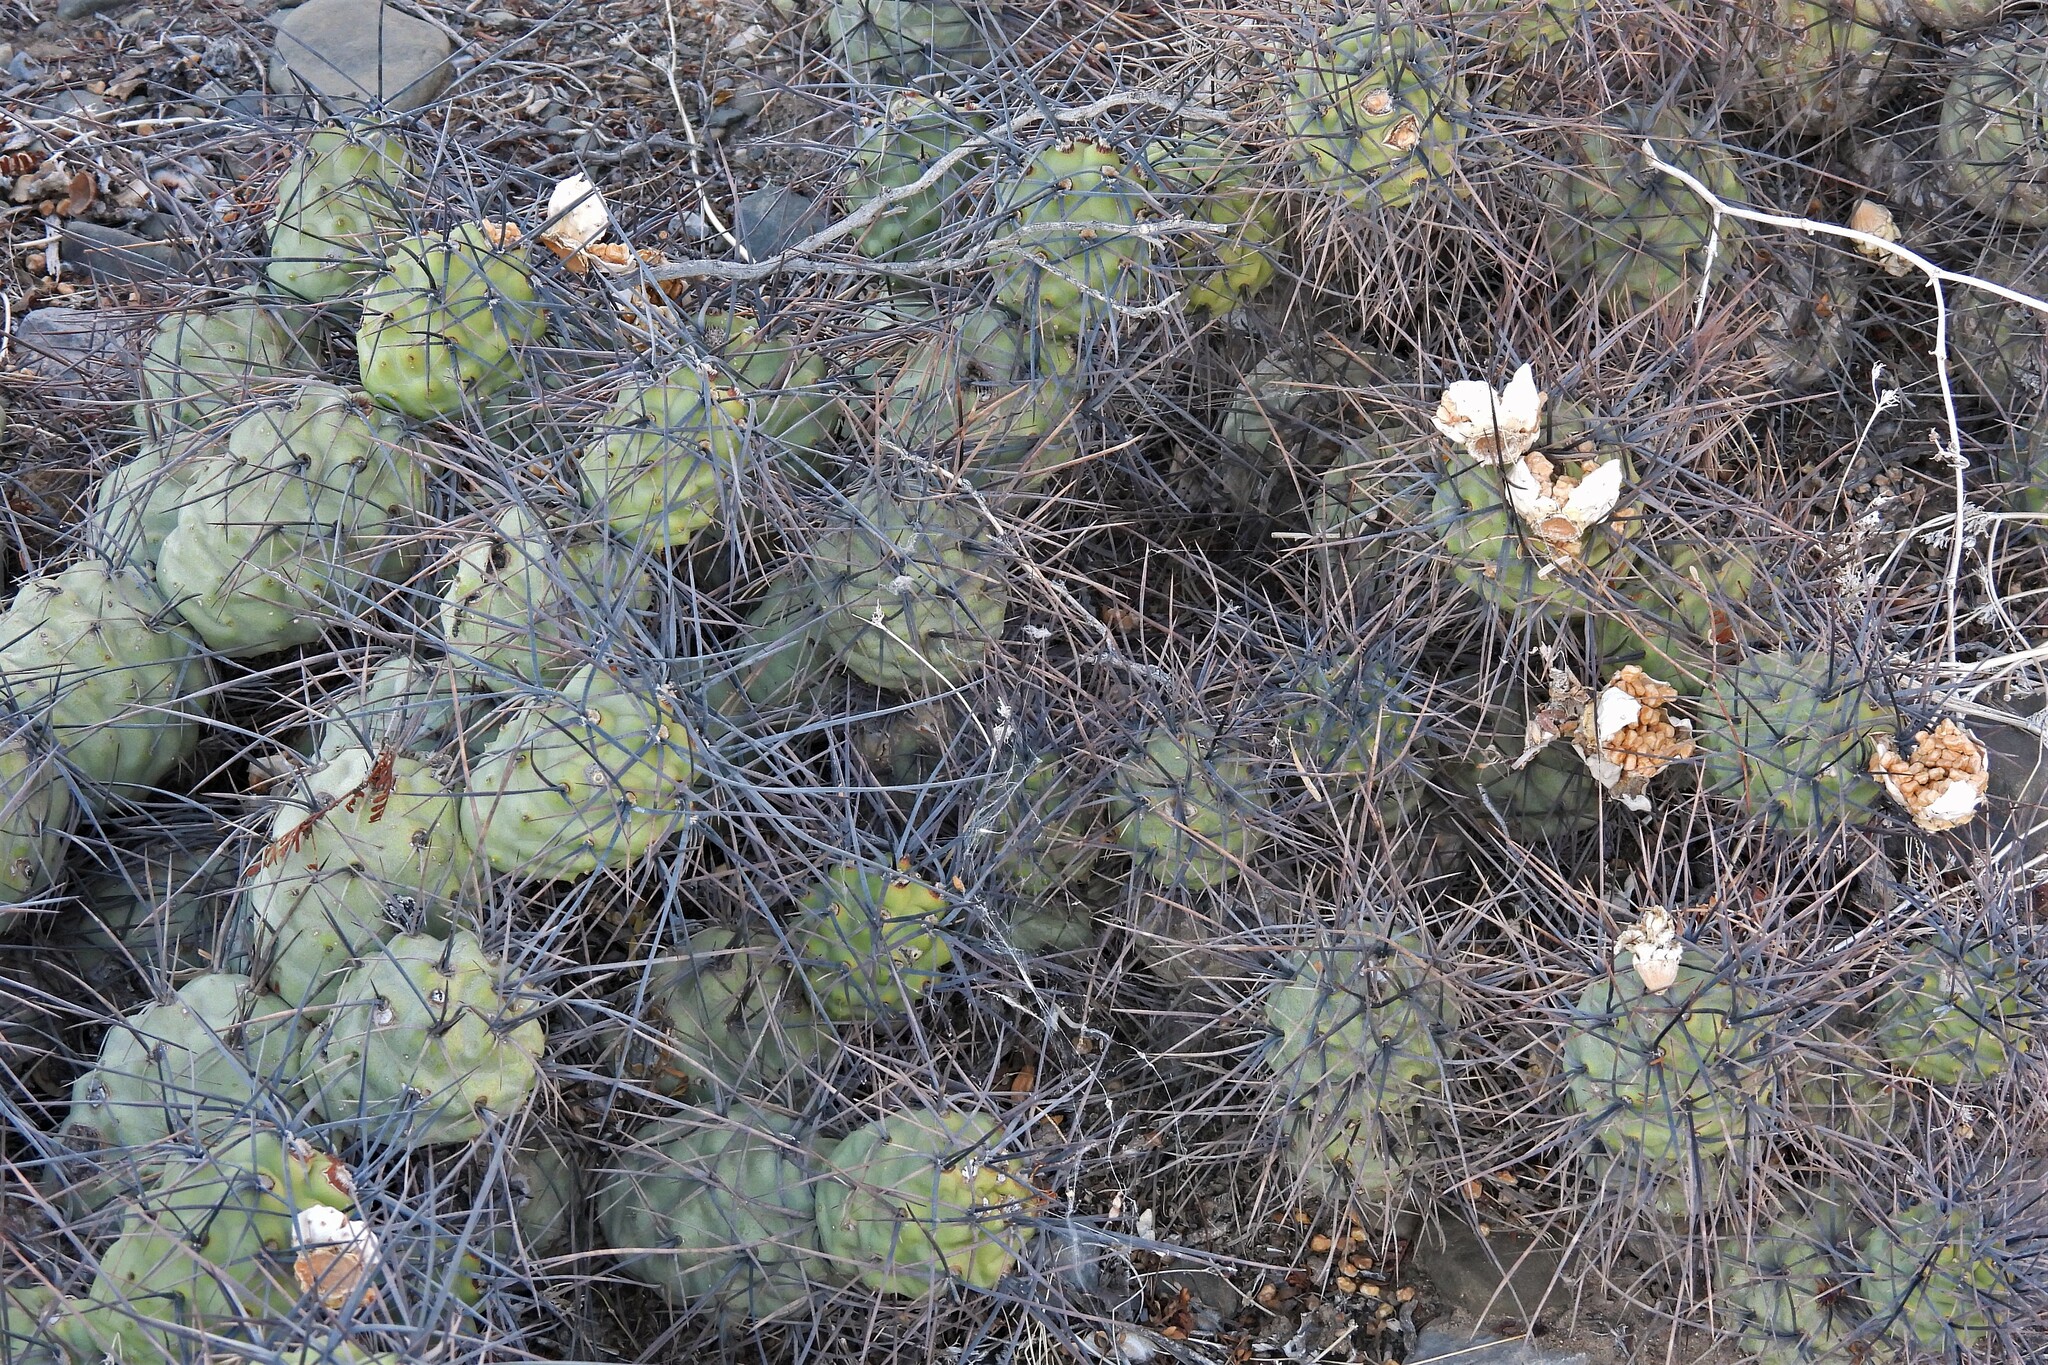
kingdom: Plantae
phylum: Tracheophyta
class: Magnoliopsida
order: Caryophyllales
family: Cactaceae
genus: Tephrocactus
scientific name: Tephrocactus aoracanthus
